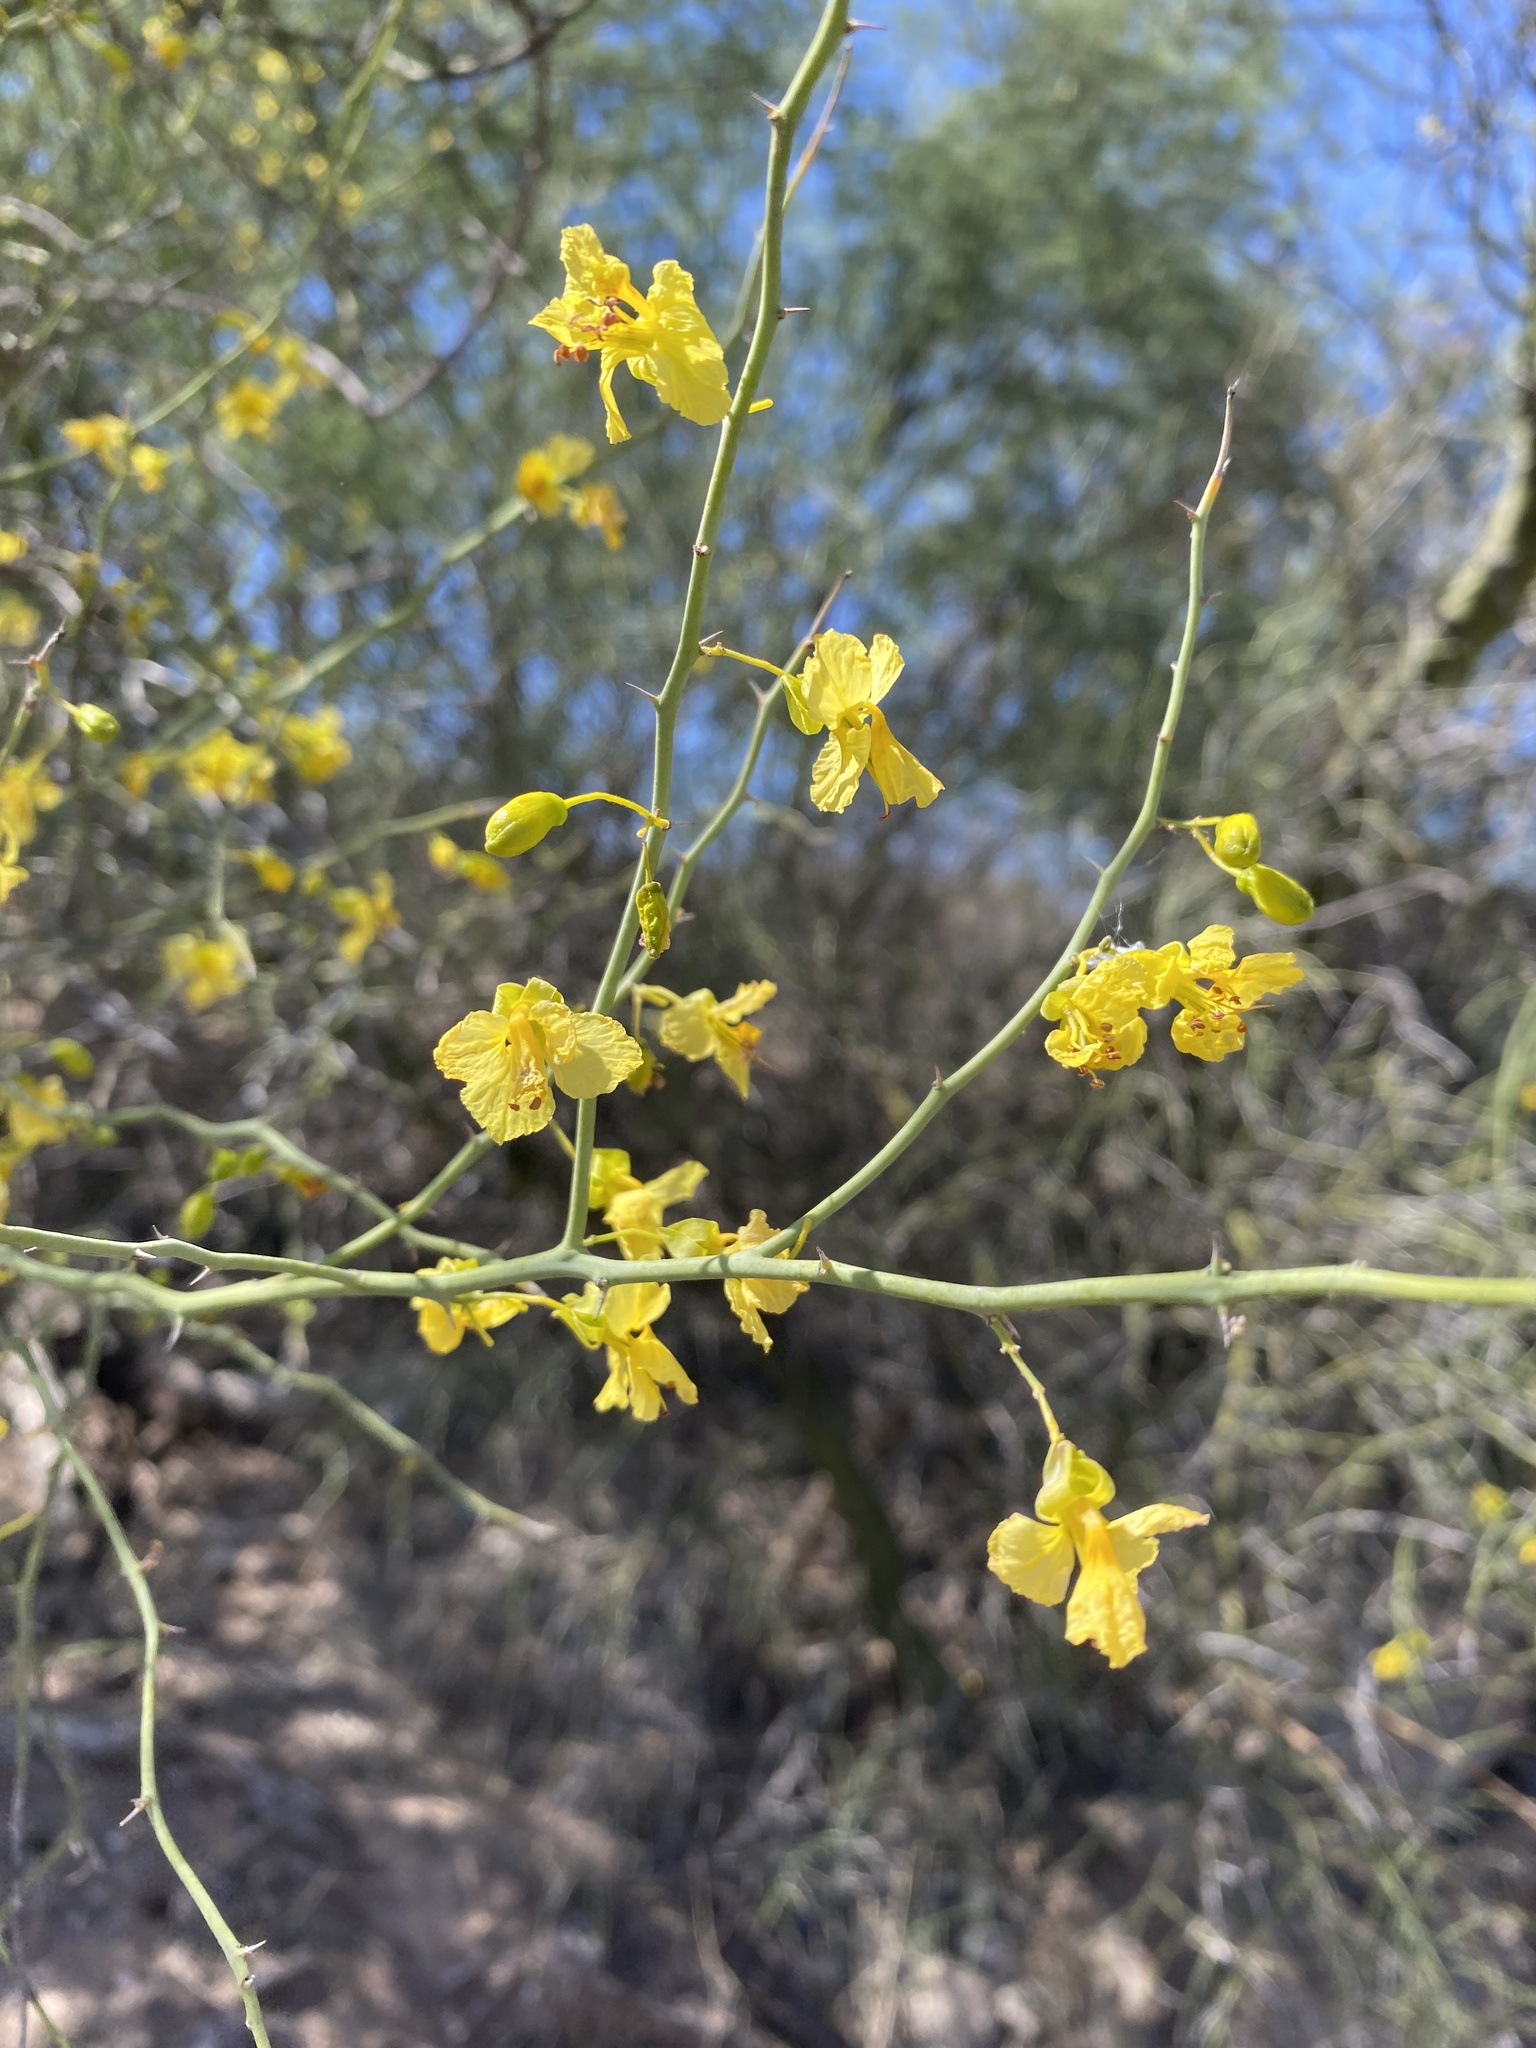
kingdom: Plantae
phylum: Tracheophyta
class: Magnoliopsida
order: Fabales
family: Fabaceae
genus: Parkinsonia
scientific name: Parkinsonia florida
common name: Blue paloverde
